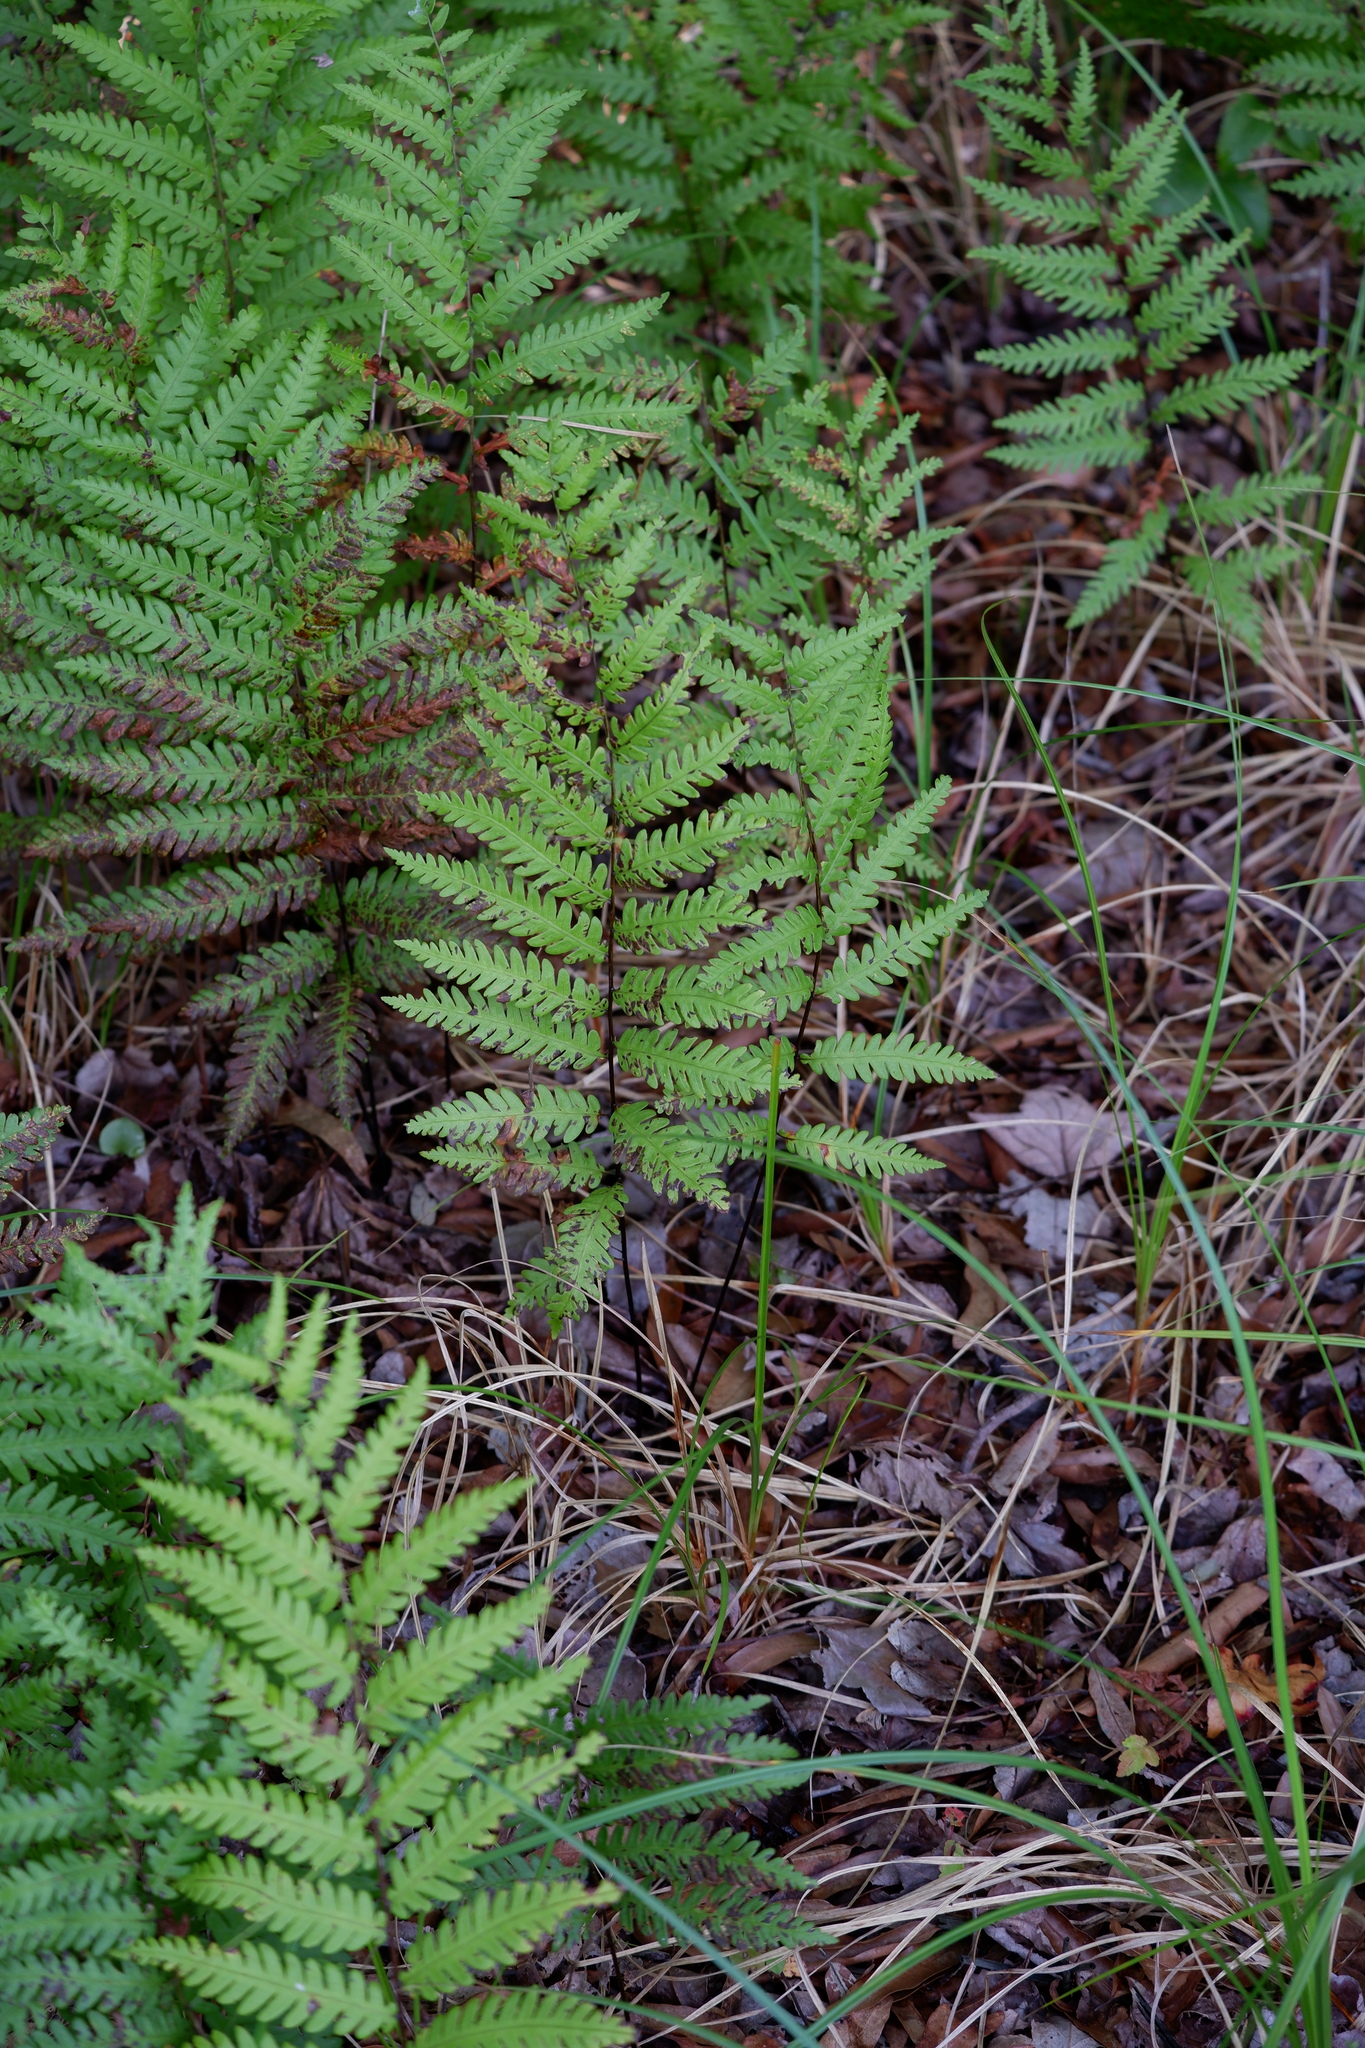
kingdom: Plantae
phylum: Tracheophyta
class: Polypodiopsida
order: Polypodiales
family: Blechnaceae
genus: Anchistea
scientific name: Anchistea virginica
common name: Virginia chain fern
